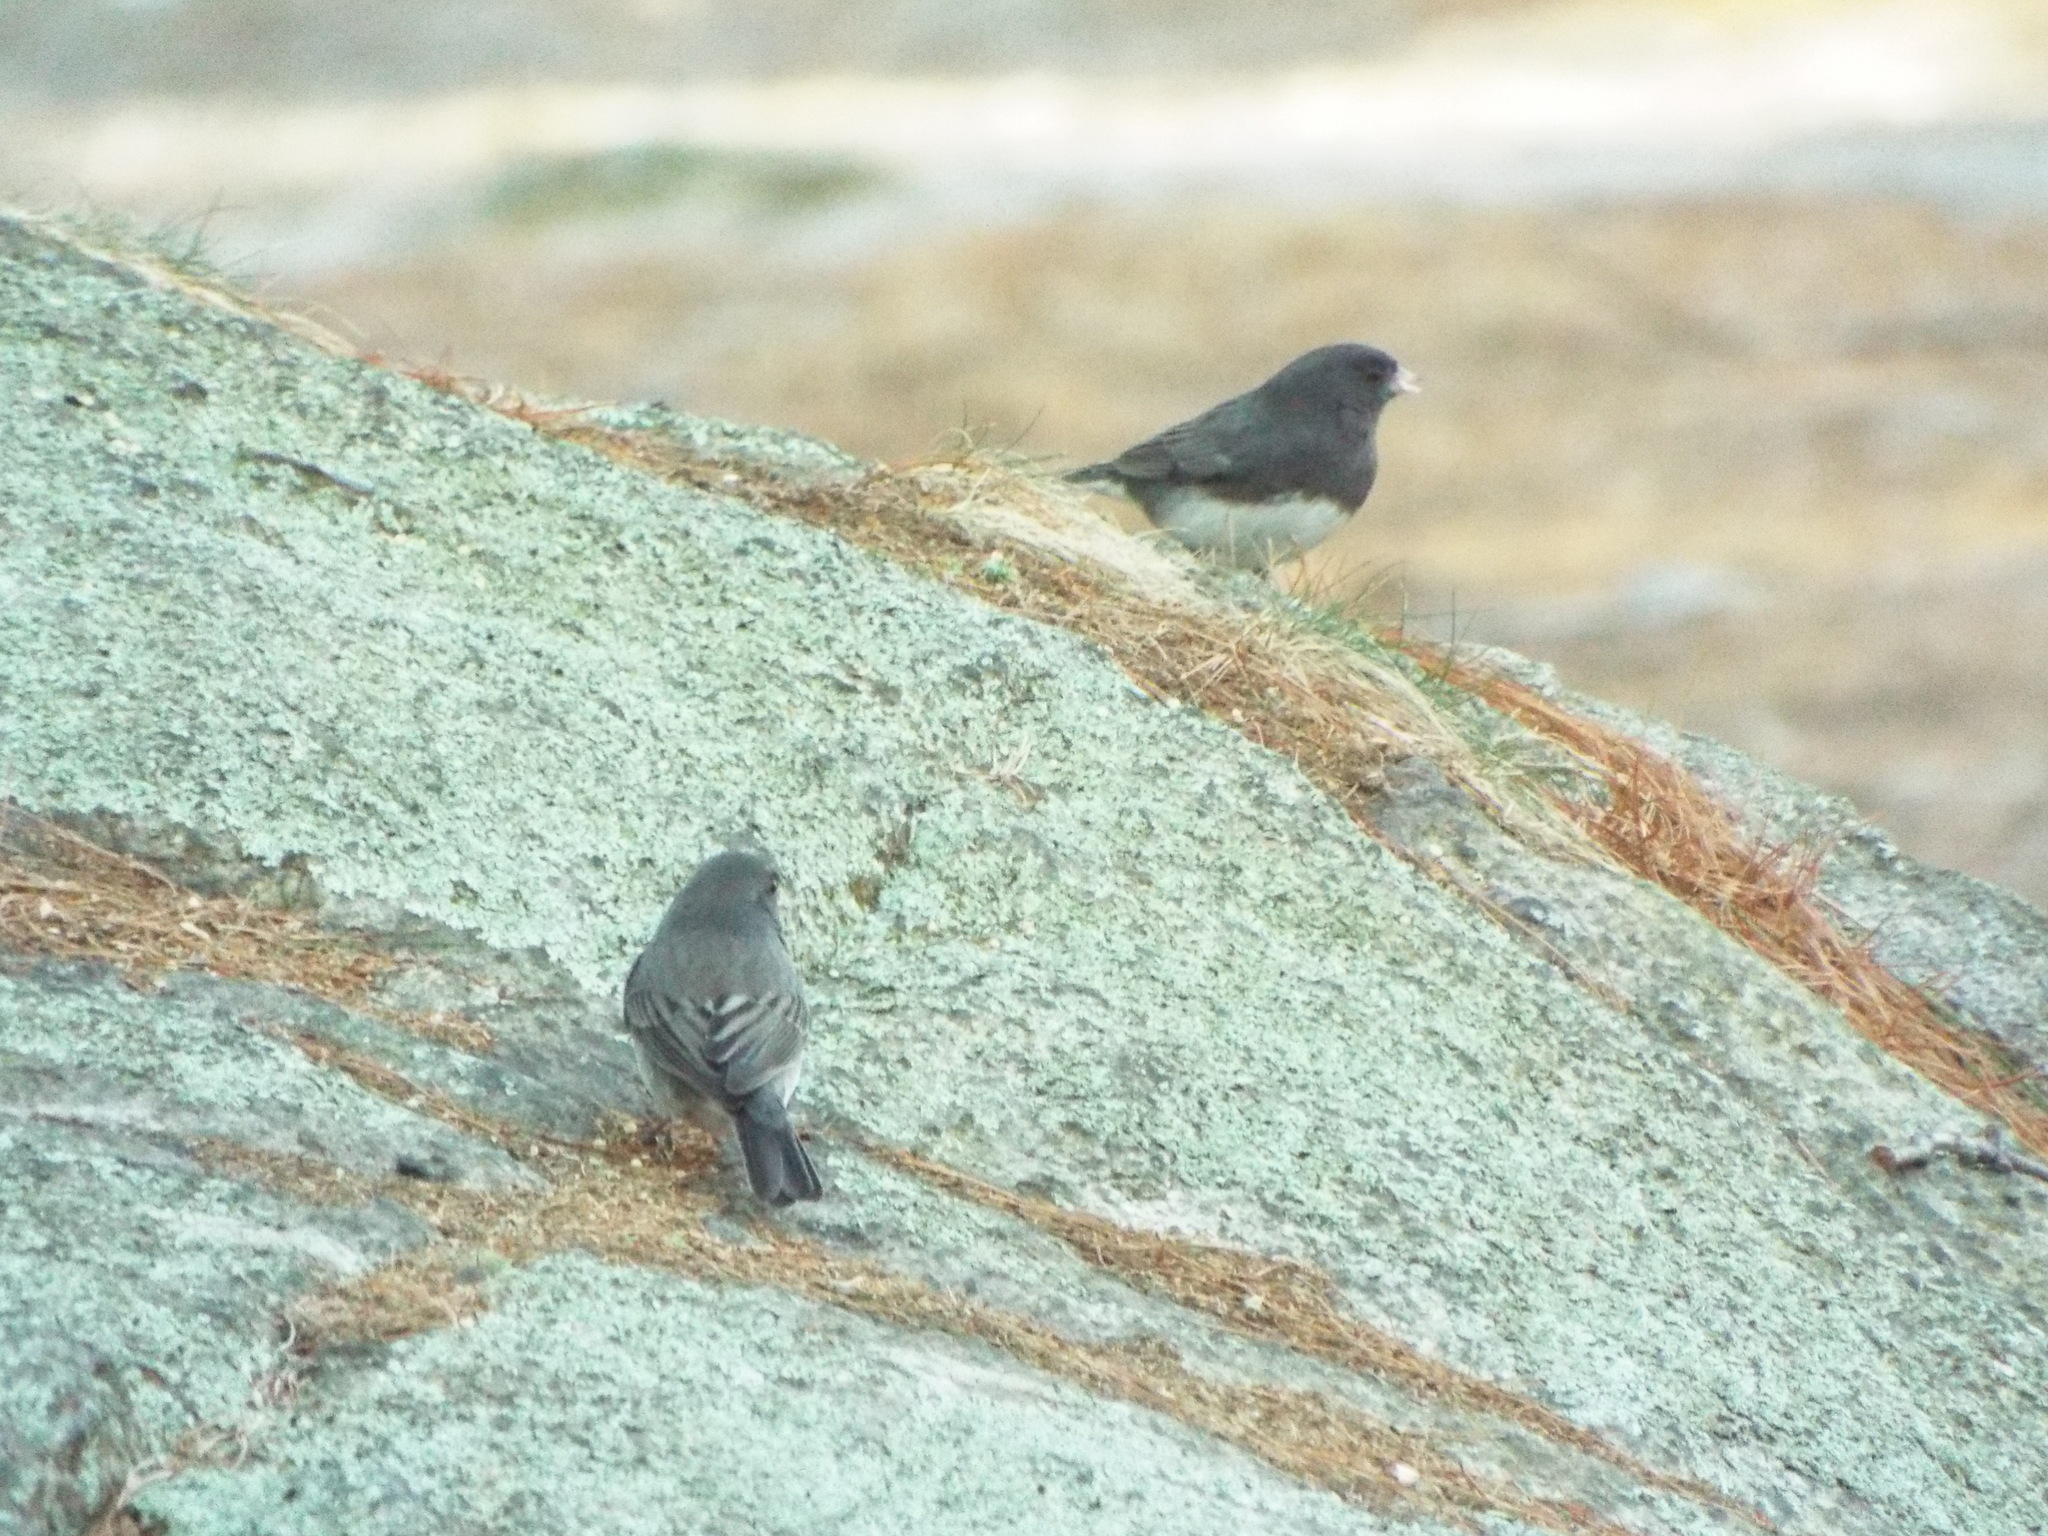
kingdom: Animalia
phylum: Chordata
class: Aves
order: Passeriformes
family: Passerellidae
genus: Junco
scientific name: Junco hyemalis
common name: Dark-eyed junco
